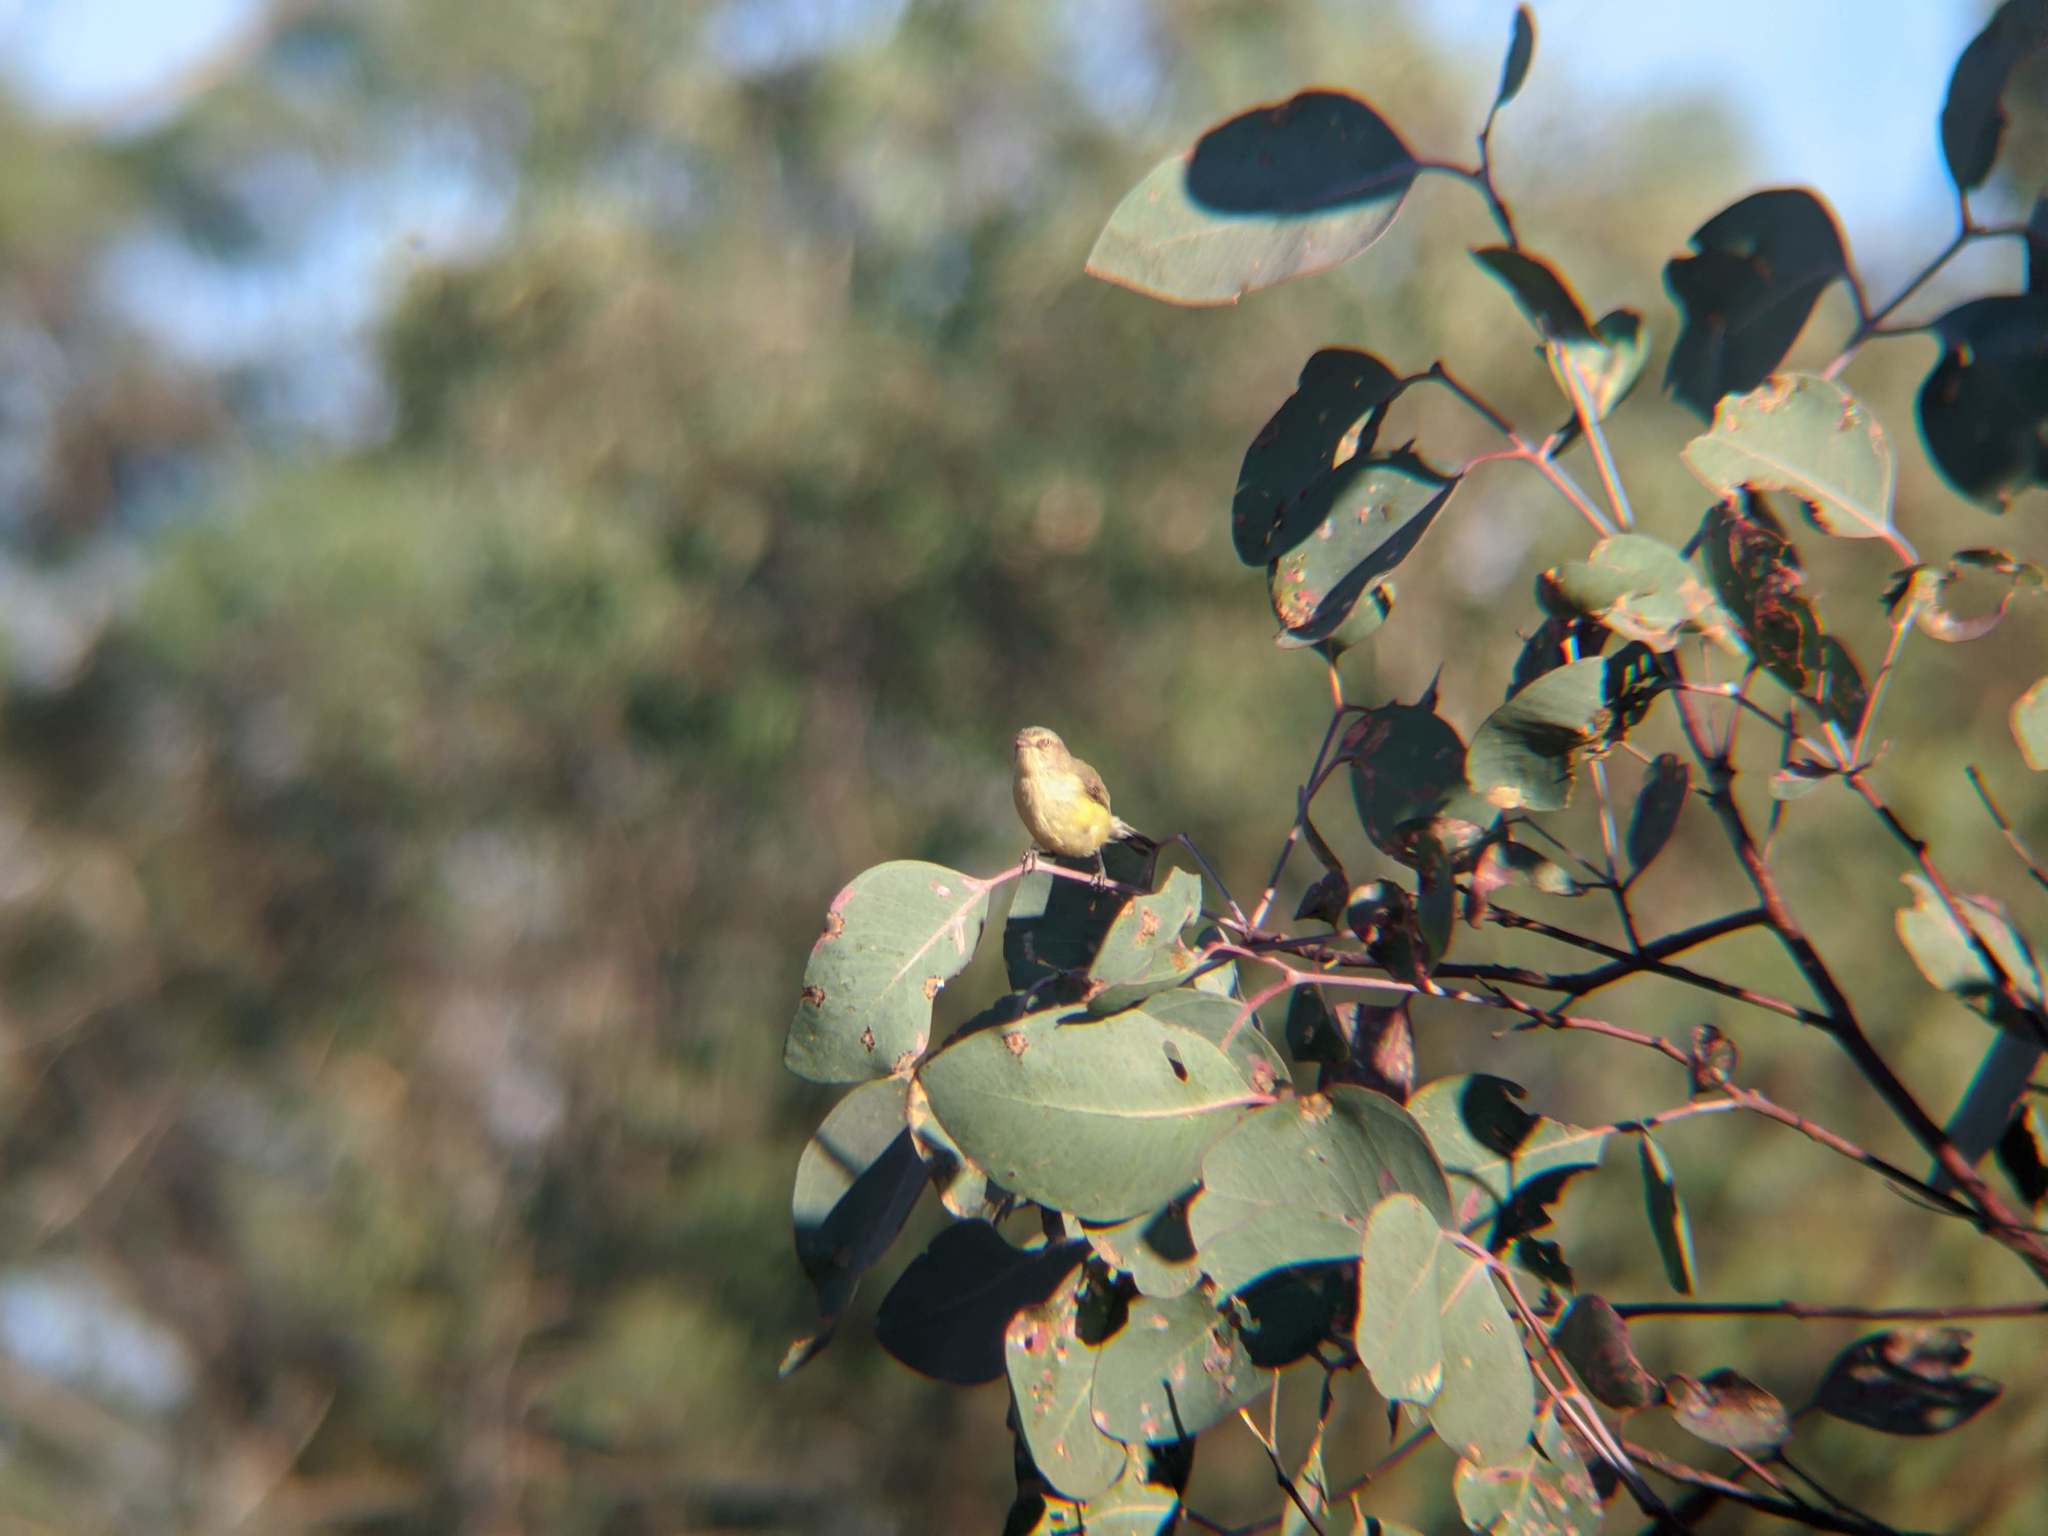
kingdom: Animalia
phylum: Chordata
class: Aves
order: Passeriformes
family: Acanthizidae
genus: Smicrornis
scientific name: Smicrornis brevirostris
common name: Weebill
